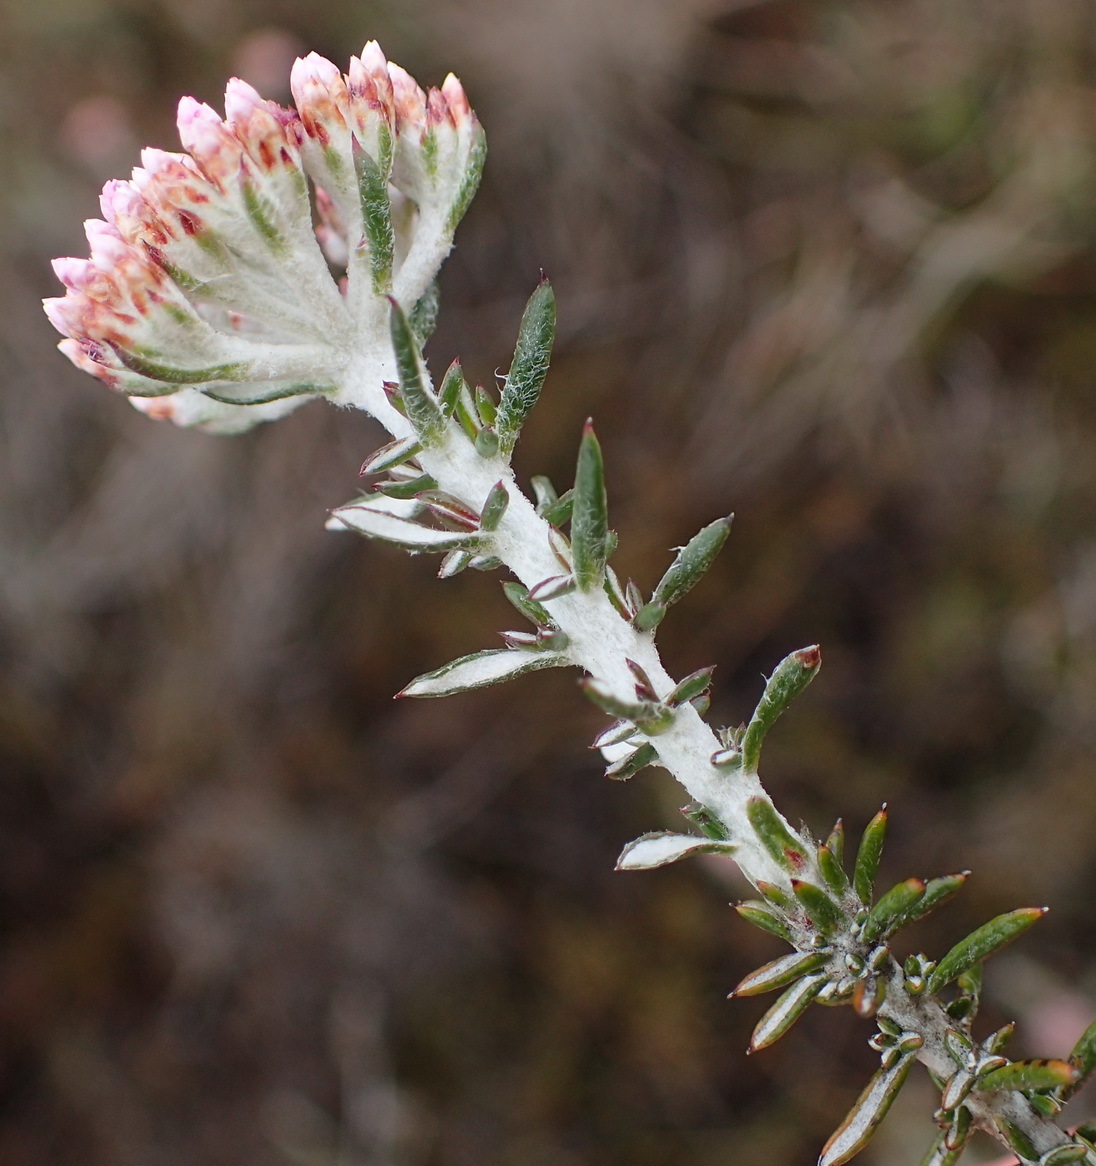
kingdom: Plantae
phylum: Tracheophyta
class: Magnoliopsida
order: Asterales
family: Asteraceae
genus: Metalasia
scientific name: Metalasia fastigiata
